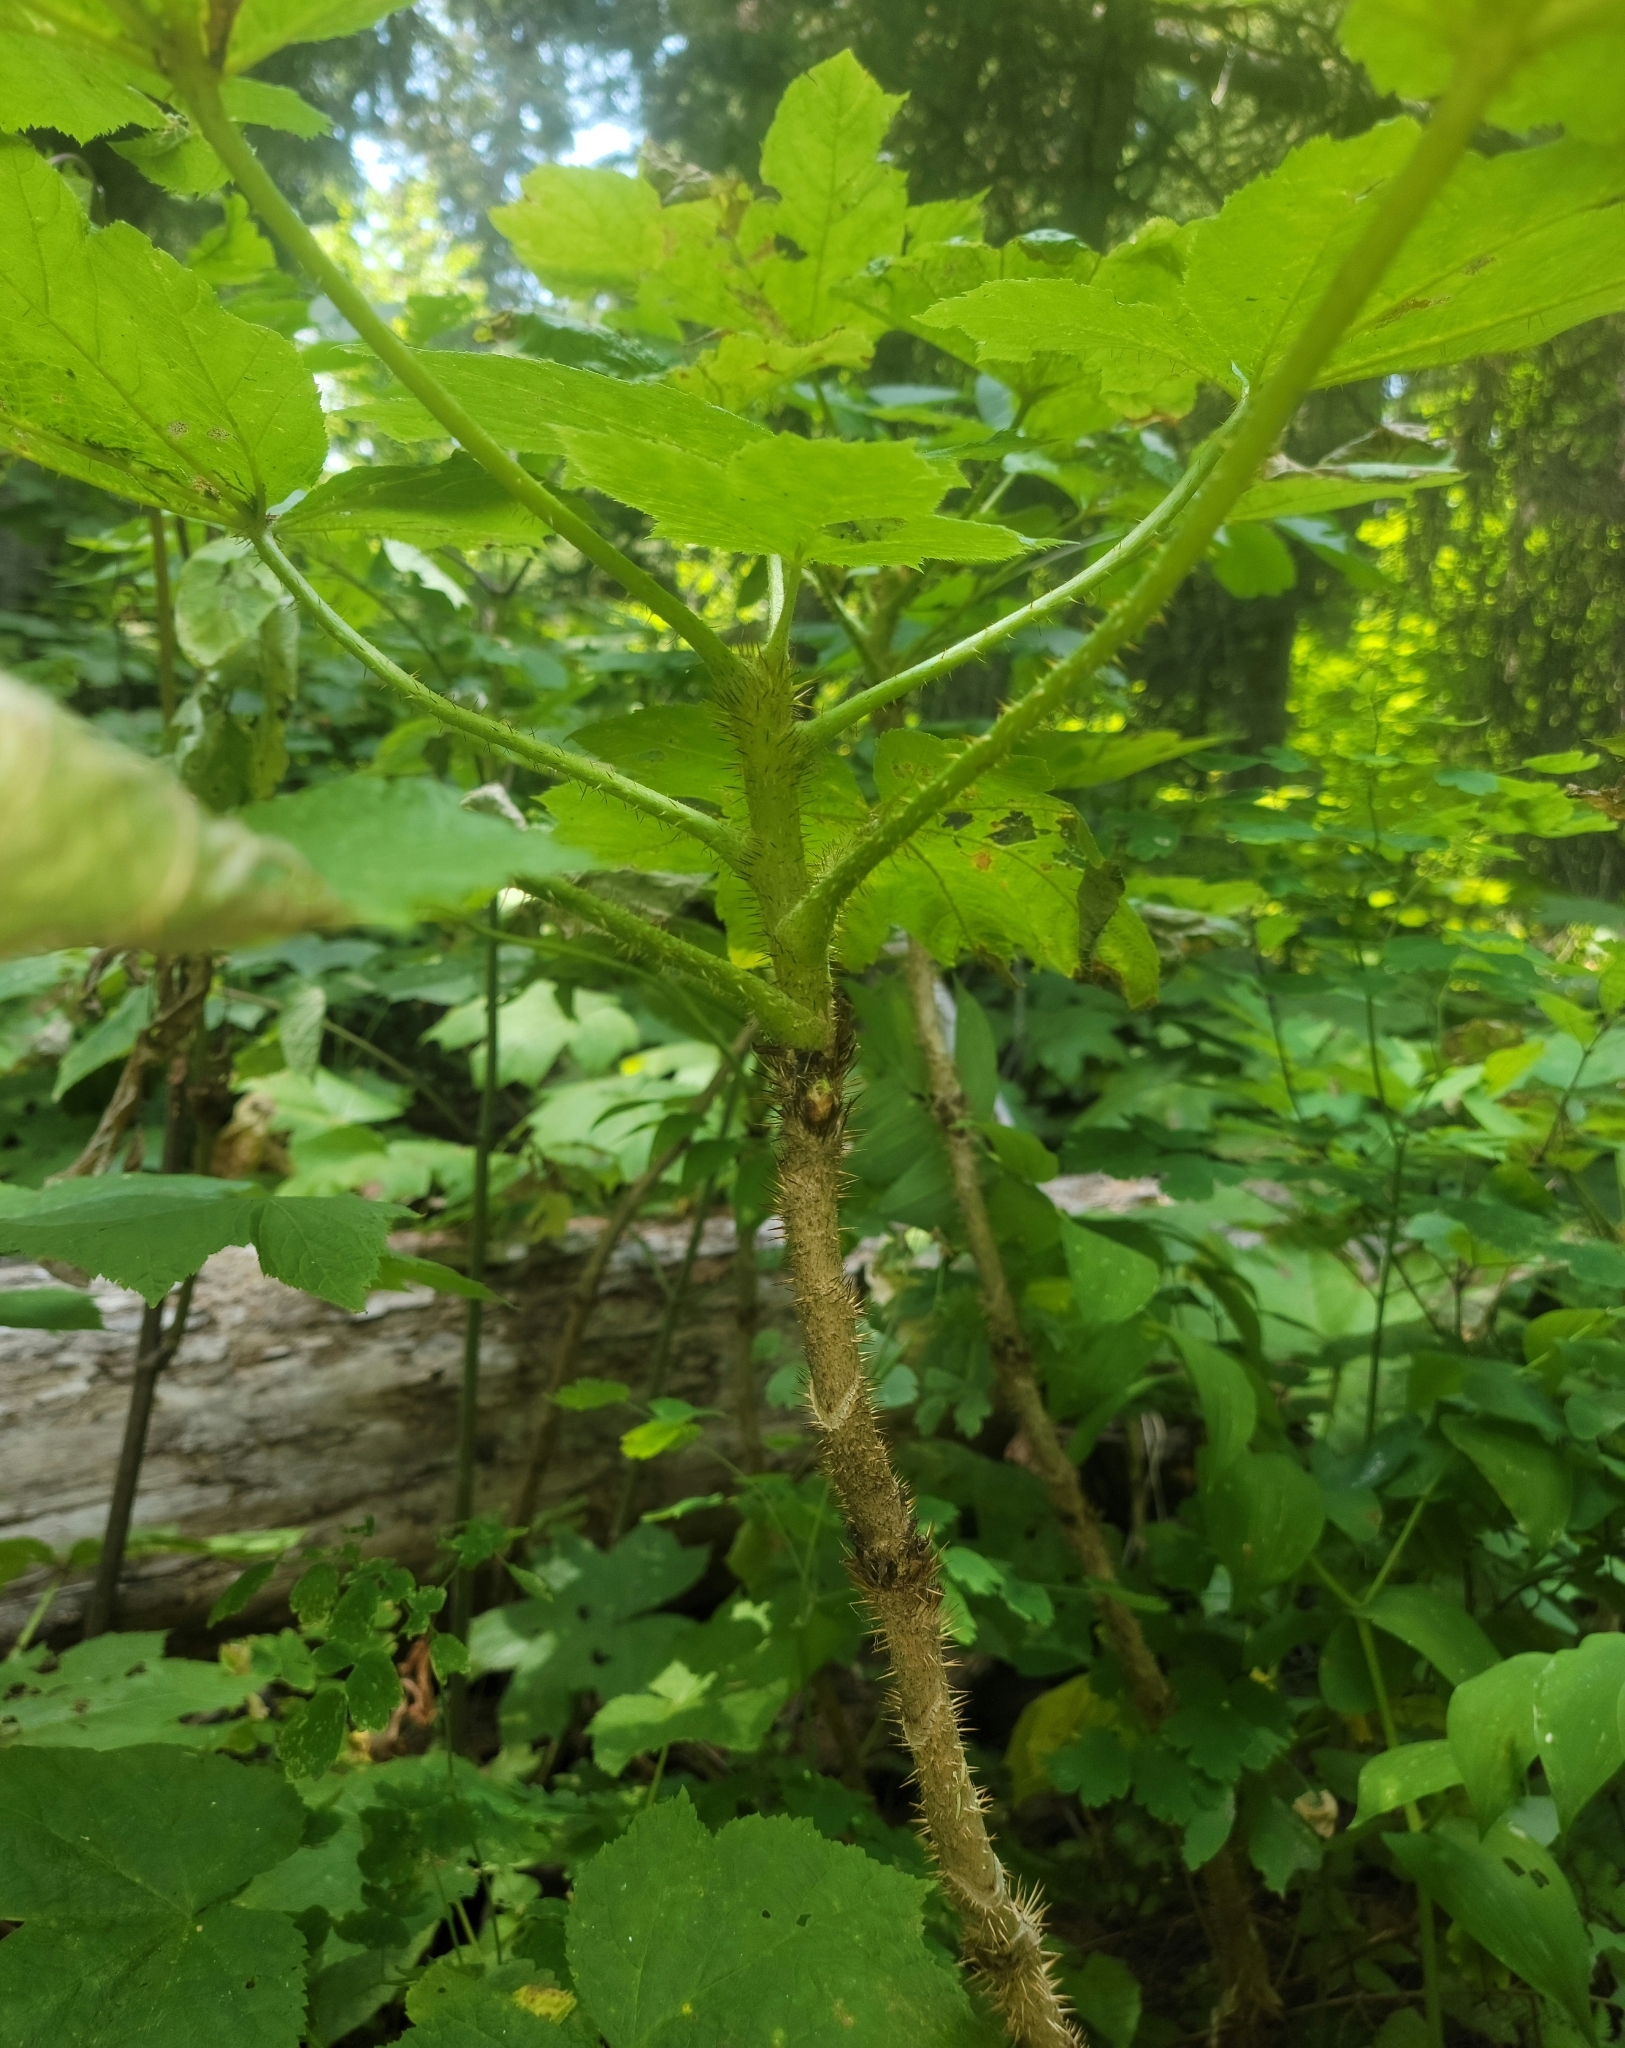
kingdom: Plantae
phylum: Tracheophyta
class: Magnoliopsida
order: Apiales
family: Araliaceae
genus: Oplopanax
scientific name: Oplopanax horridus
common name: Devil's walking-stick
